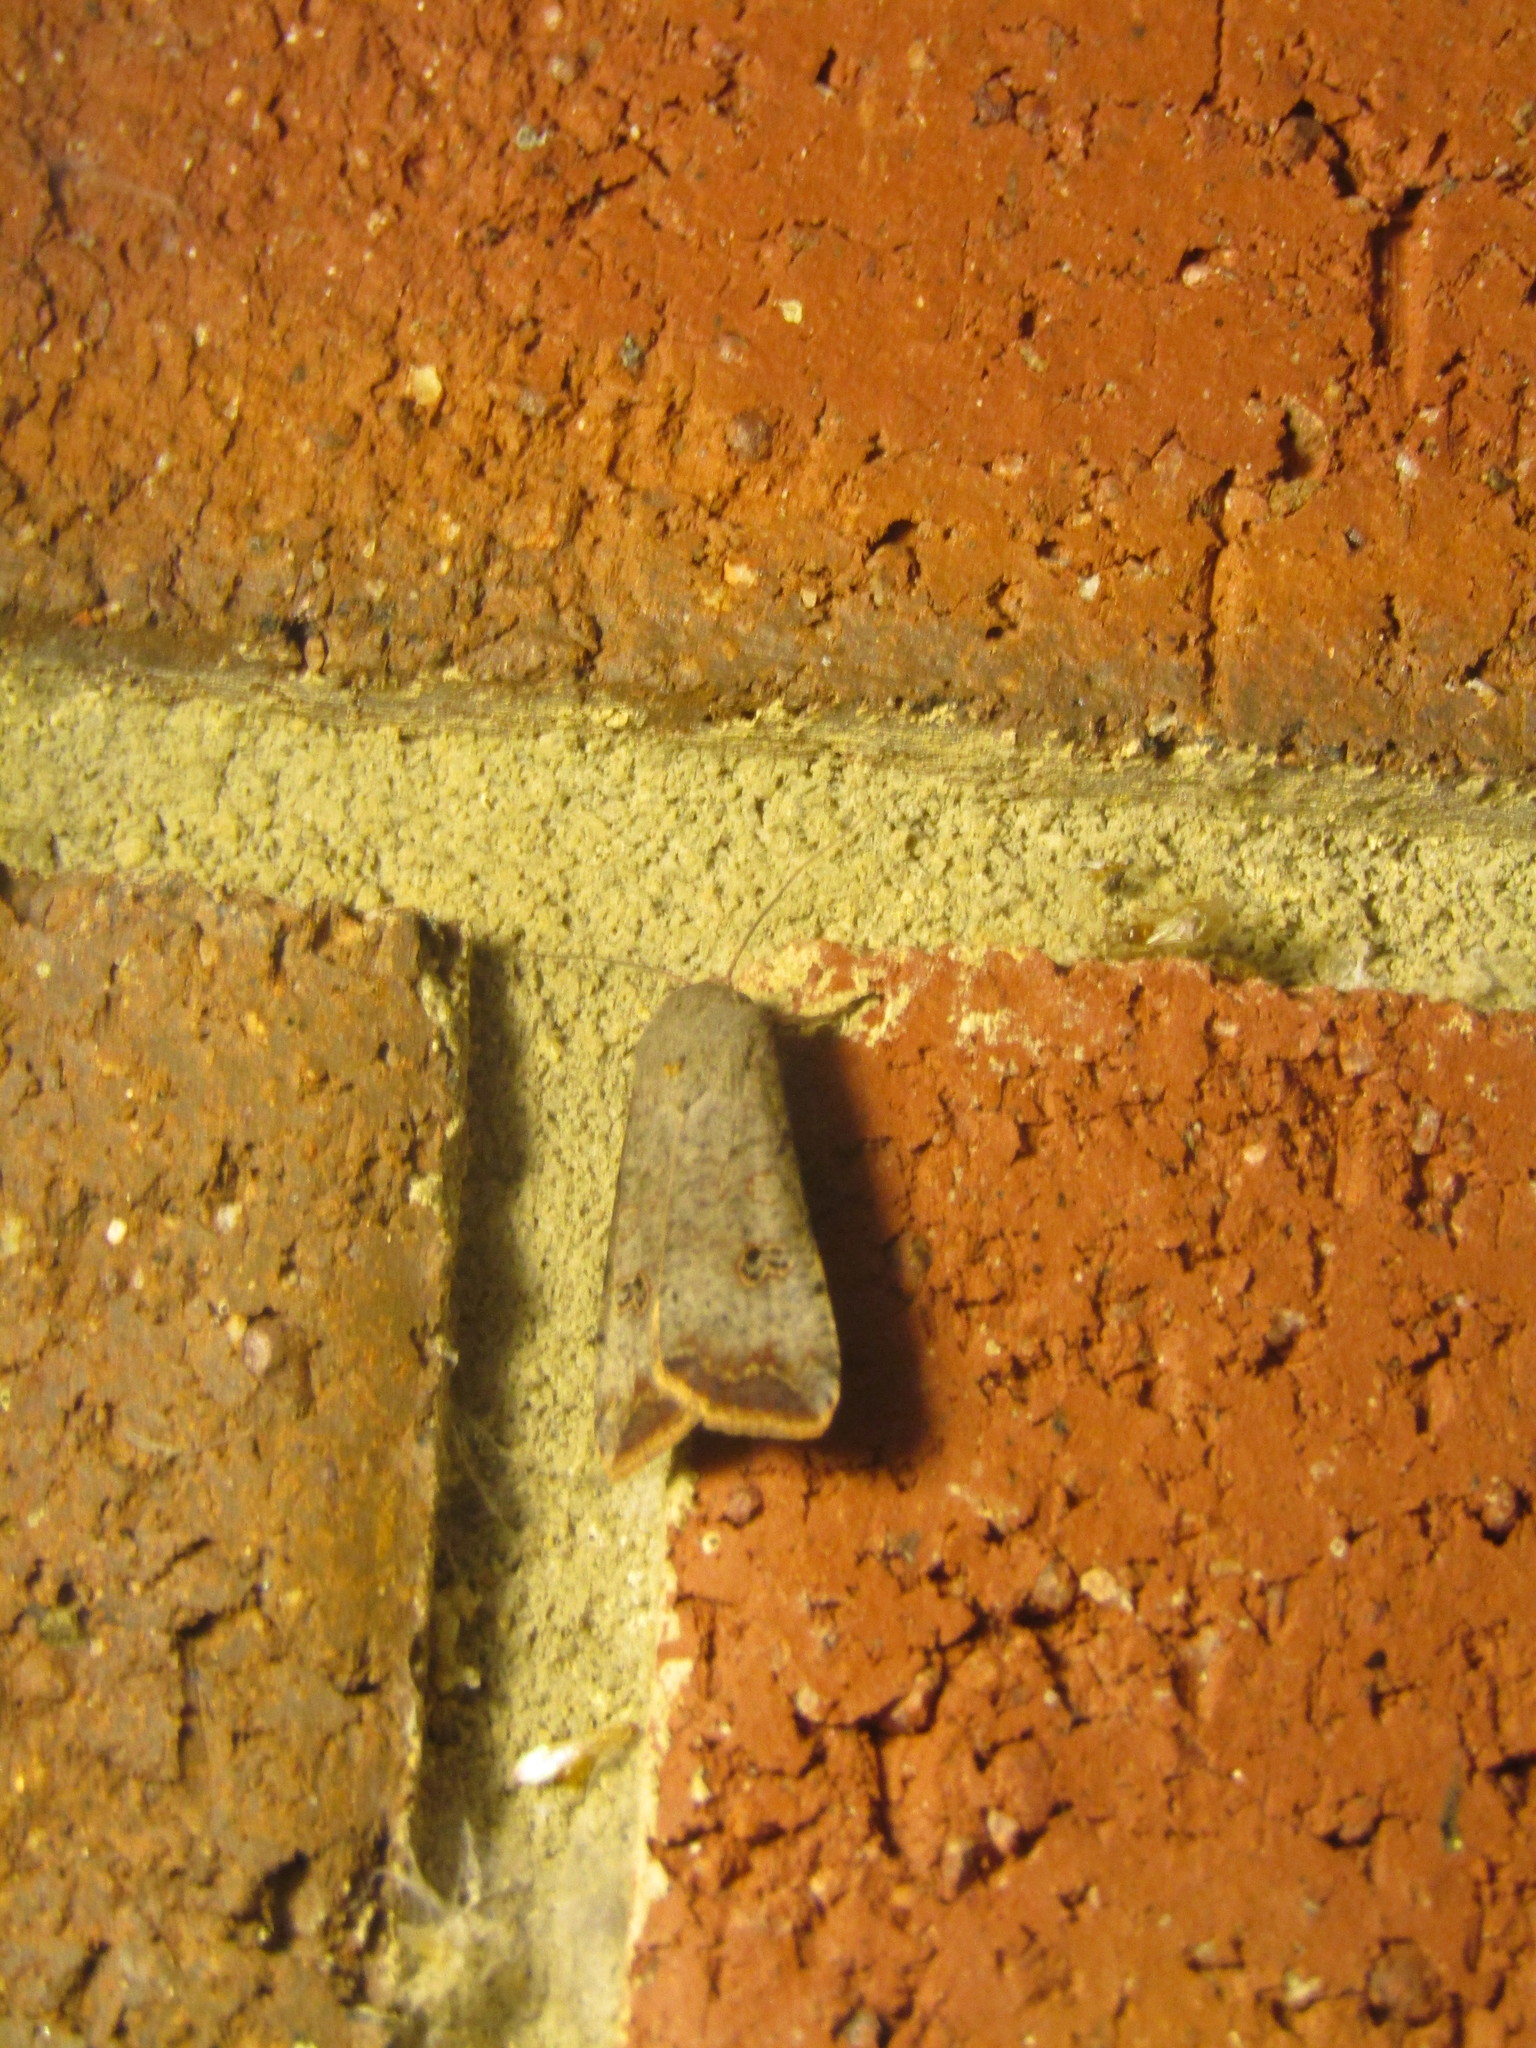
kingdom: Animalia
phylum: Arthropoda
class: Insecta
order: Lepidoptera
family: Noctuidae
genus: Anicla
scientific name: Anicla infecta
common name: Green cutworm
